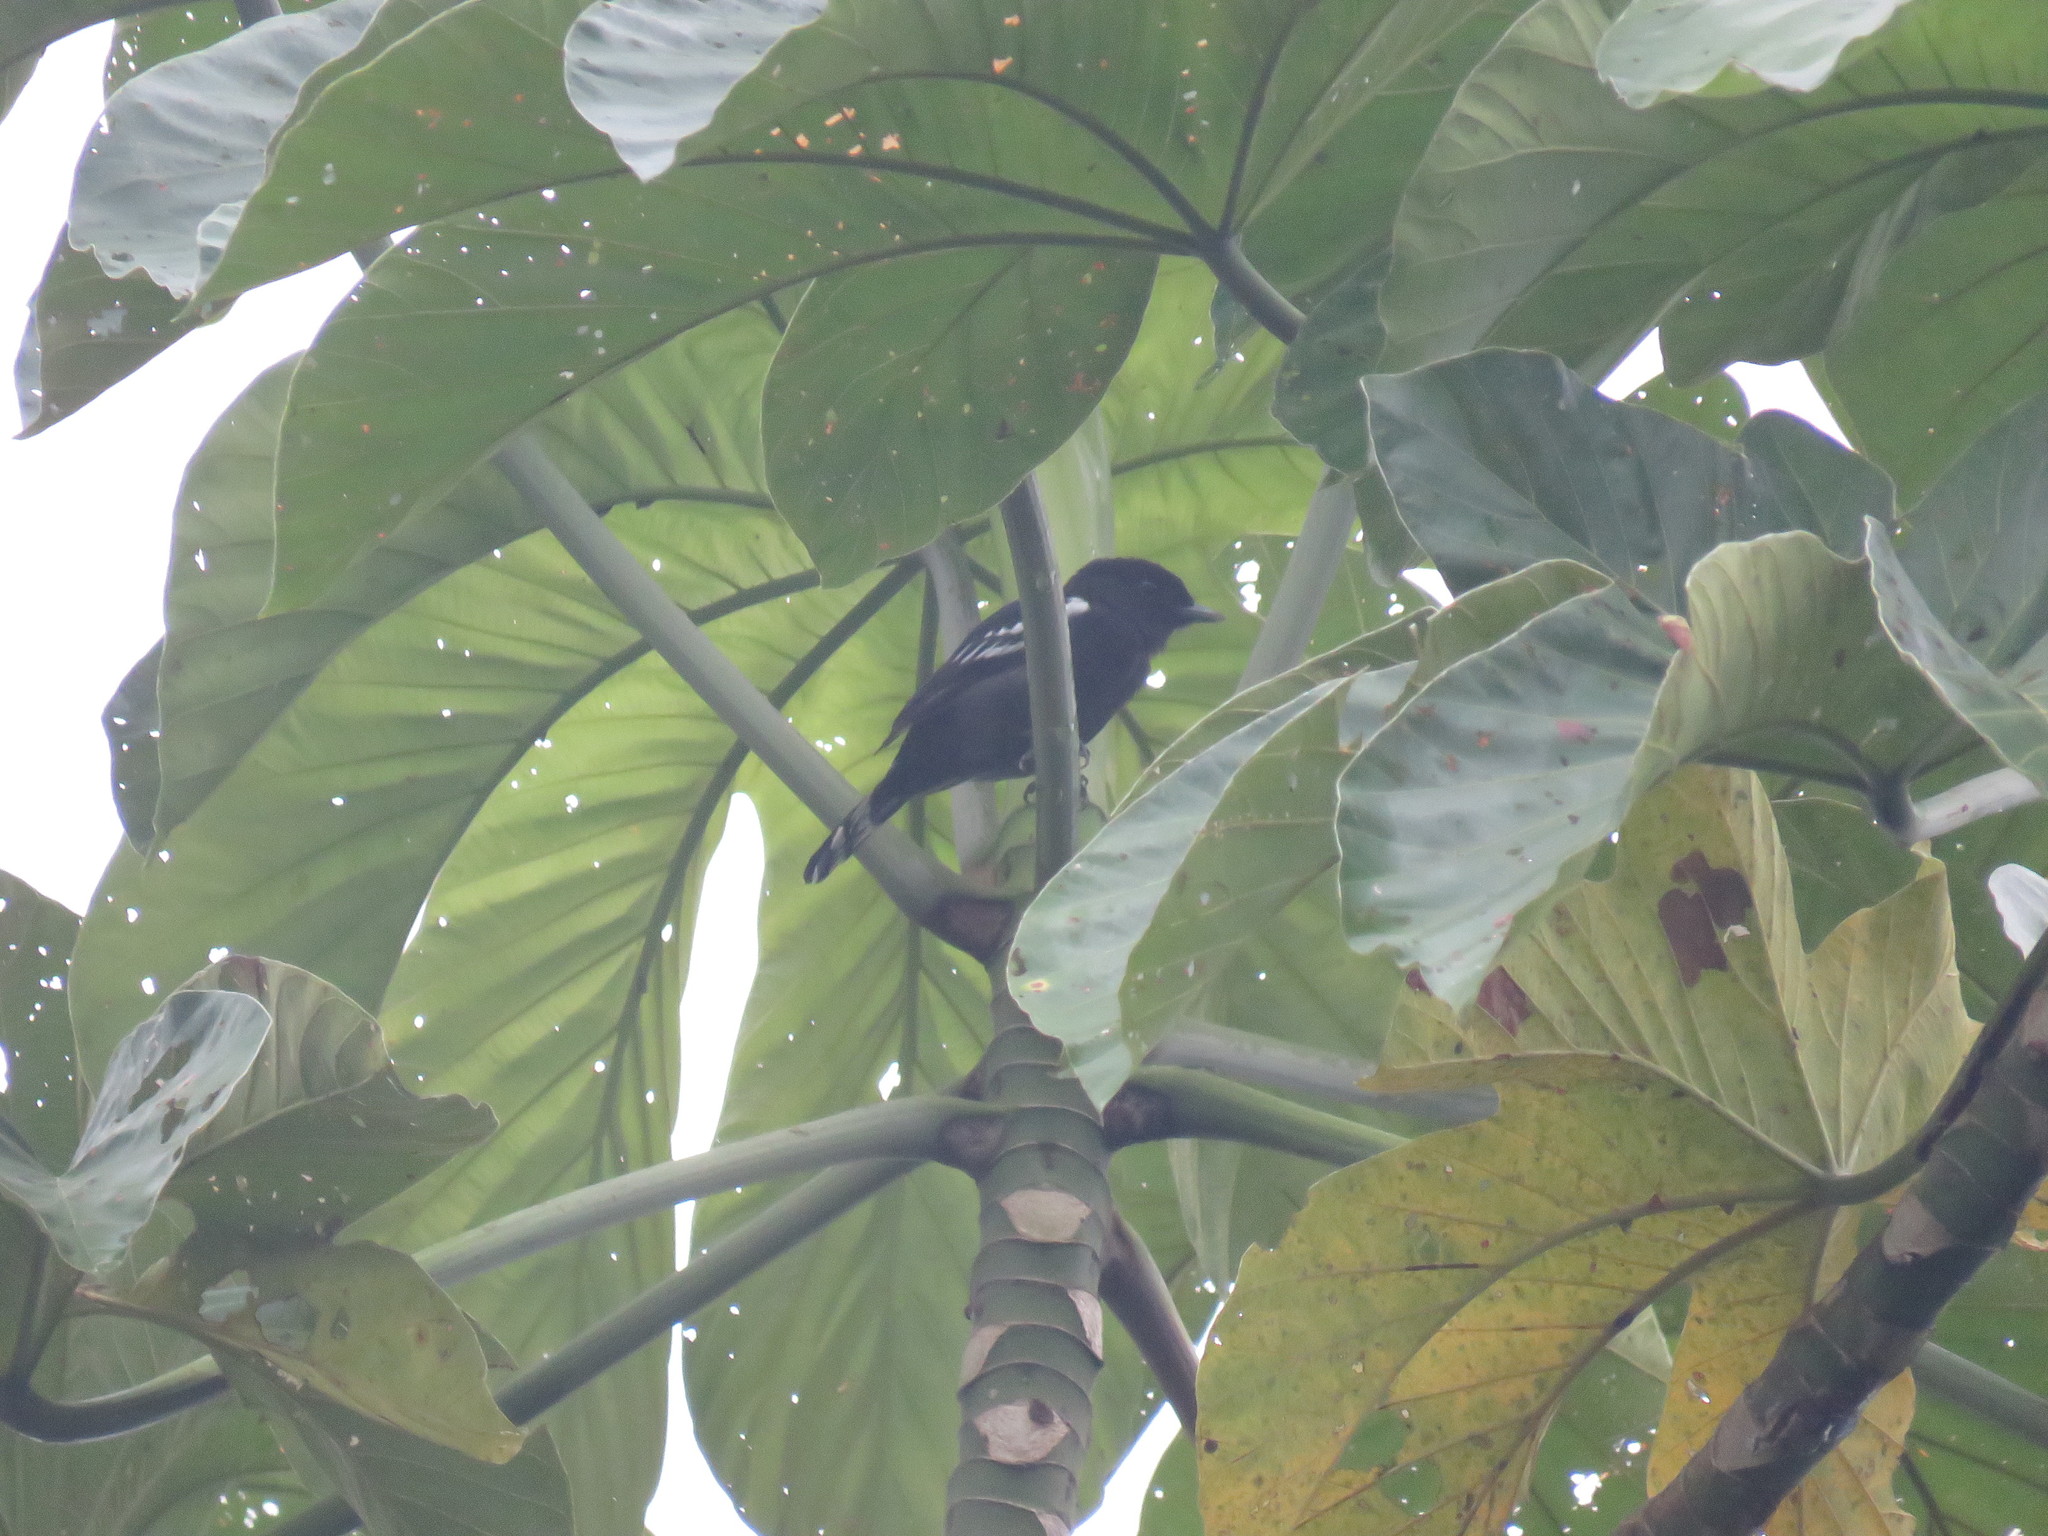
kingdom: Animalia
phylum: Chordata
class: Aves
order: Passeriformes
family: Cotingidae
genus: Pachyramphus
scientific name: Pachyramphus polychopterus
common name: White-winged becard
